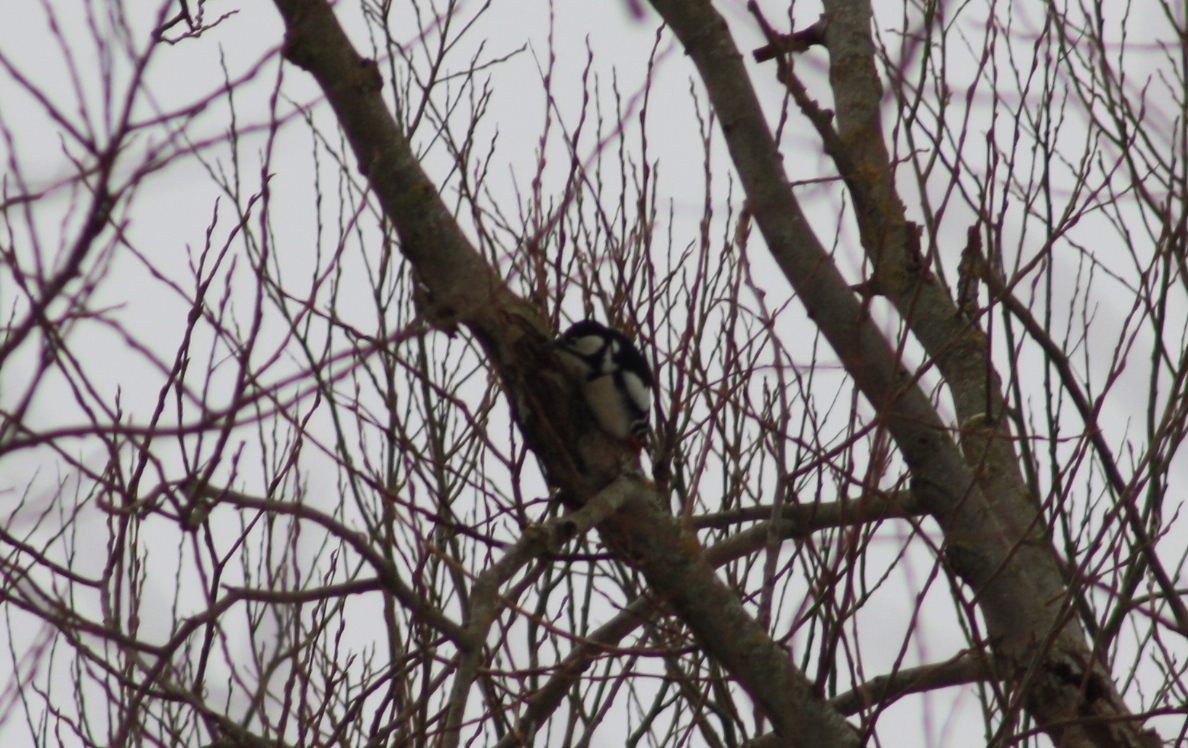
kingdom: Animalia
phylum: Chordata
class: Aves
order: Piciformes
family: Picidae
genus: Dendrocopos
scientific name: Dendrocopos major
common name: Great spotted woodpecker
